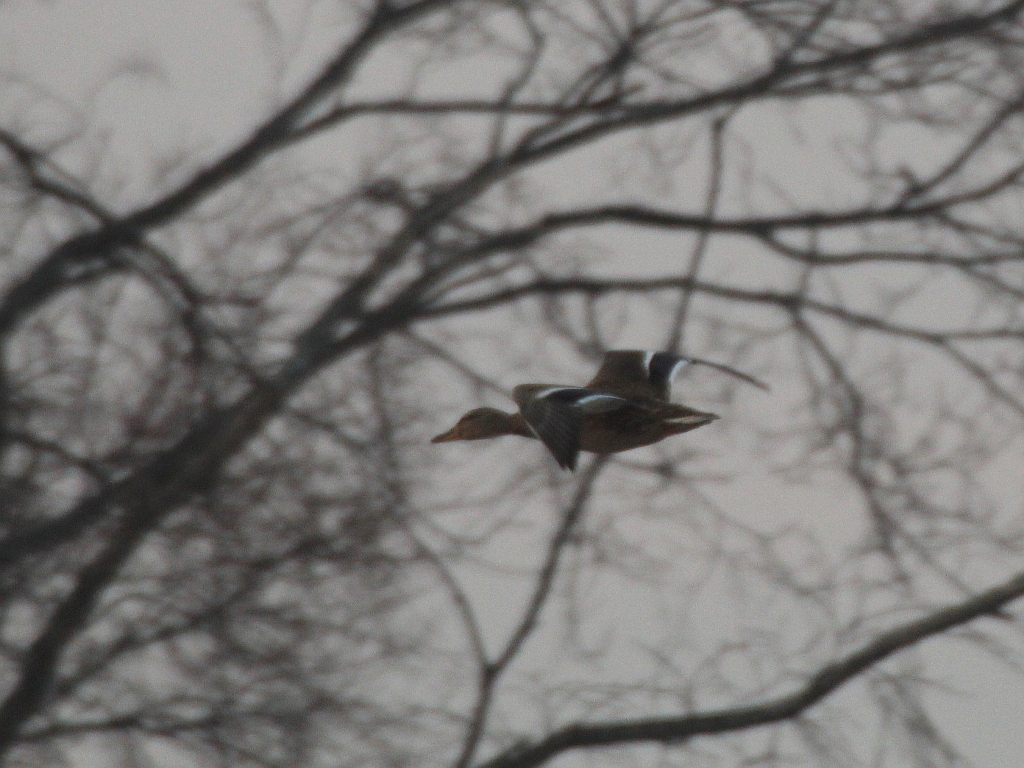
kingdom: Animalia
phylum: Chordata
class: Aves
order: Anseriformes
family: Anatidae
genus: Anas
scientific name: Anas platyrhynchos
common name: Mallard
